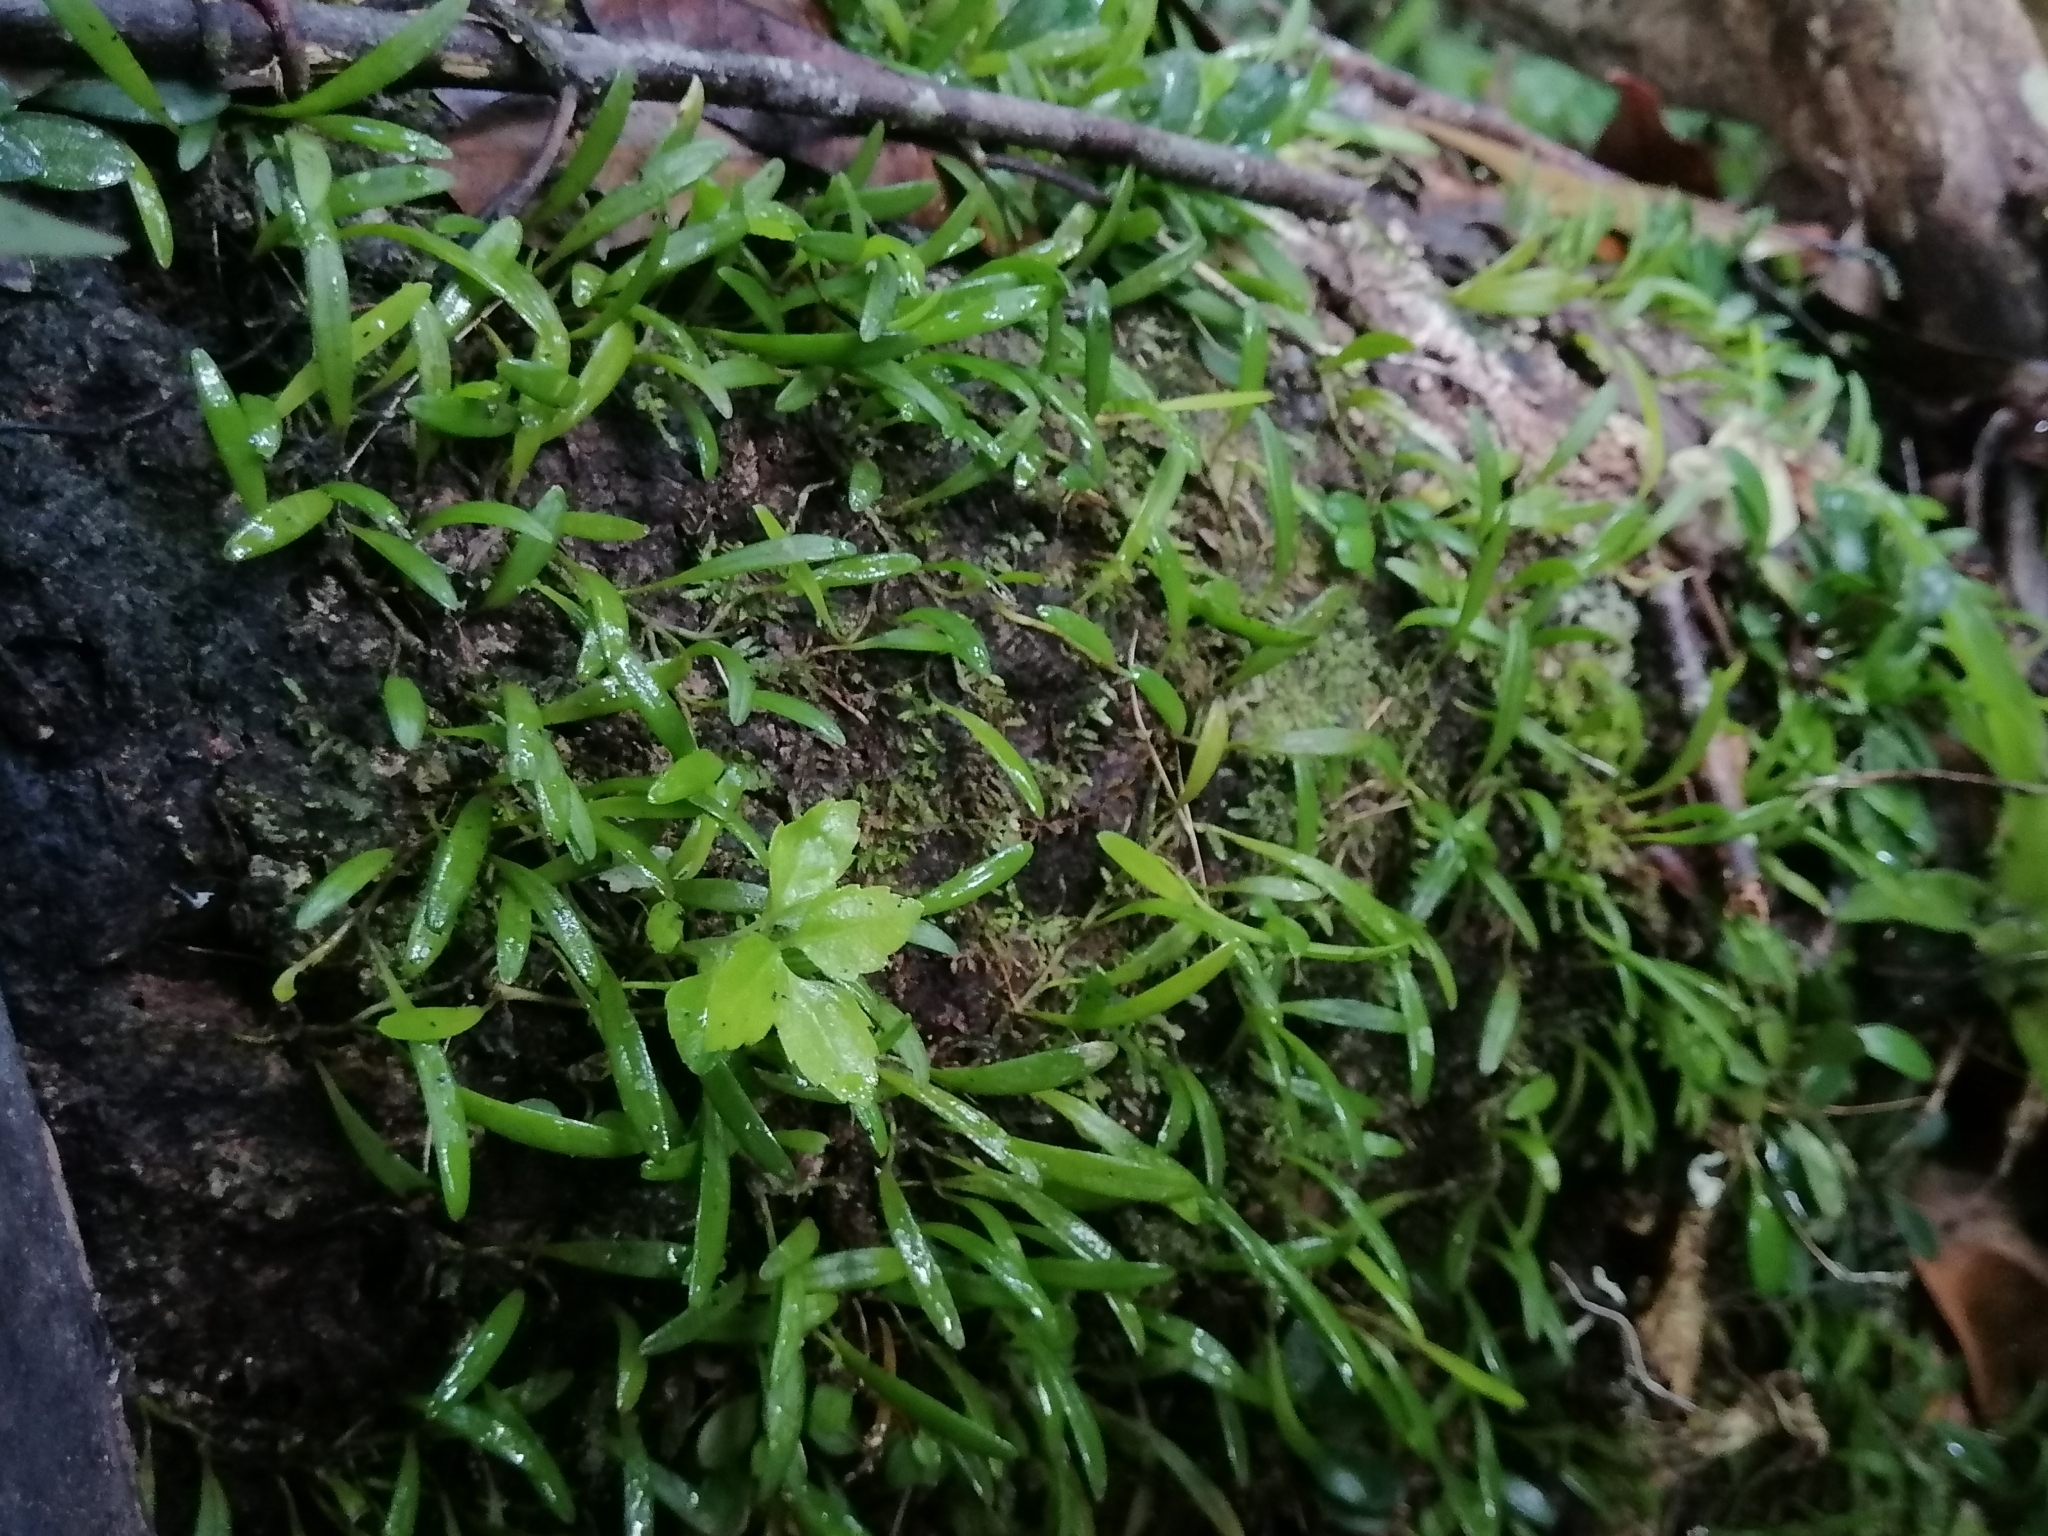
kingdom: Plantae
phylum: Tracheophyta
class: Liliopsida
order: Asparagales
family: Orchidaceae
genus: Nidema
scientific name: Nidema boothii
